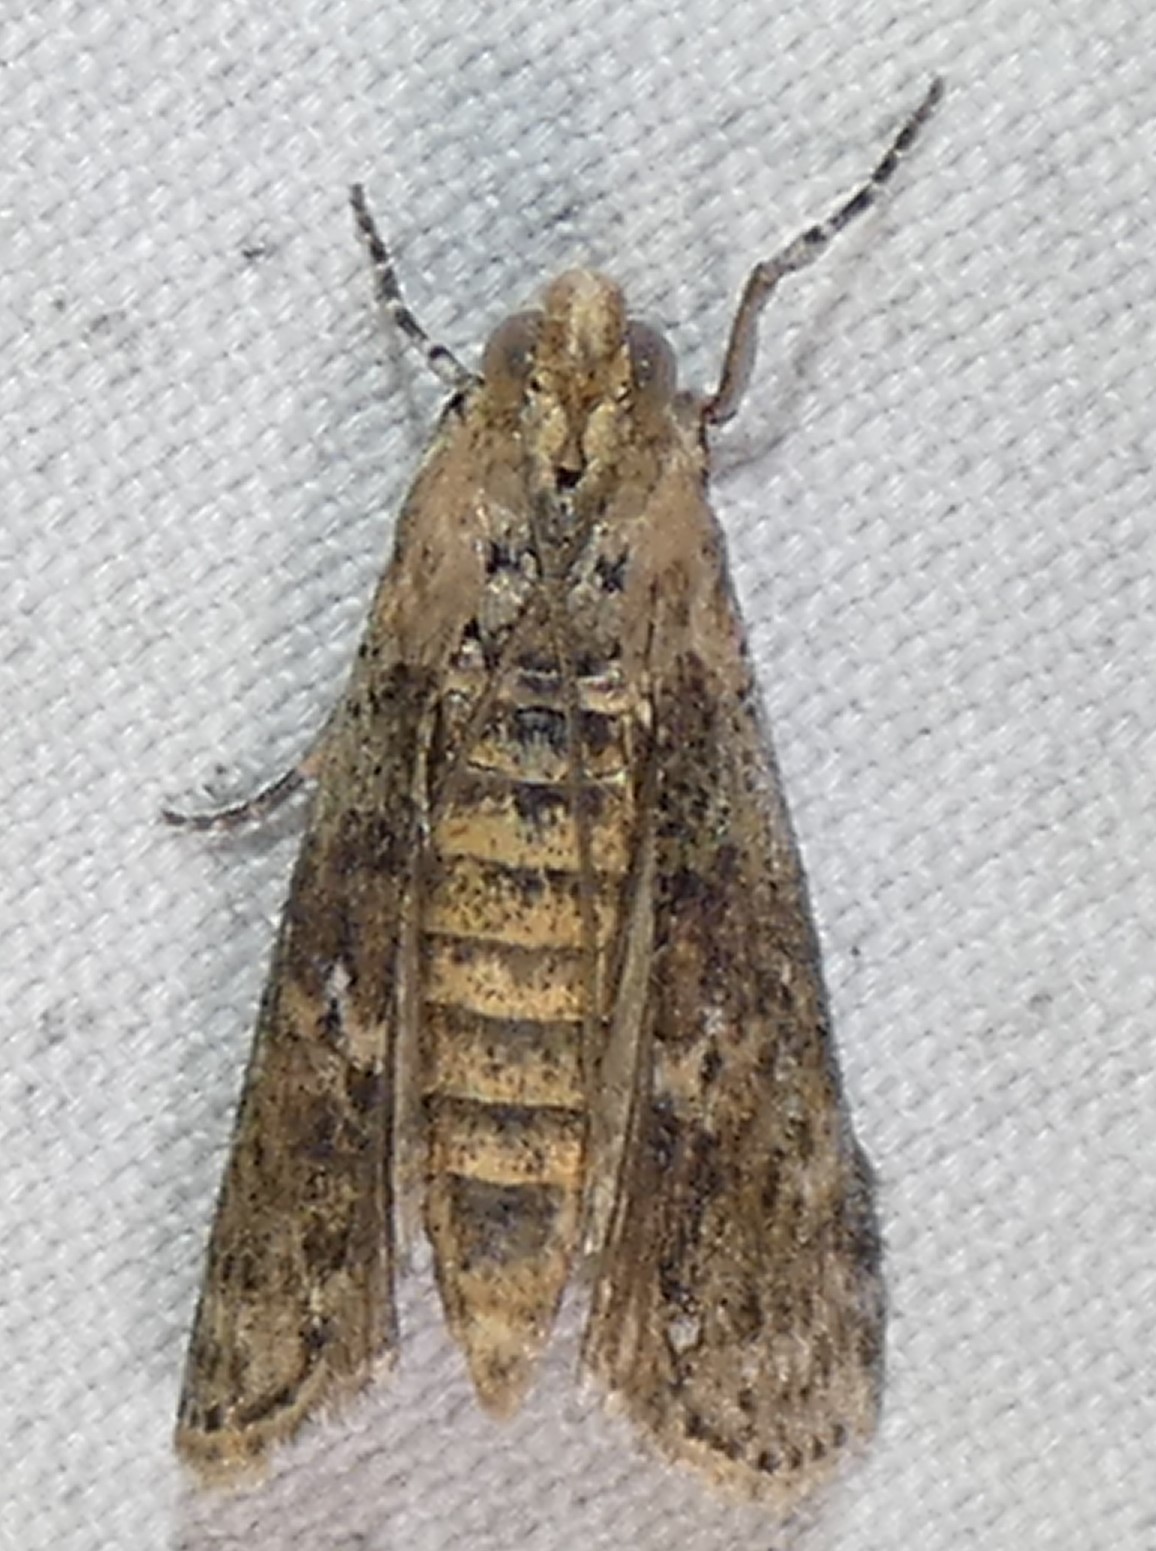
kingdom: Animalia
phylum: Arthropoda
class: Insecta
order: Lepidoptera
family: Pyralidae
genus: Sciota
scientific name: Sciota celtidella
